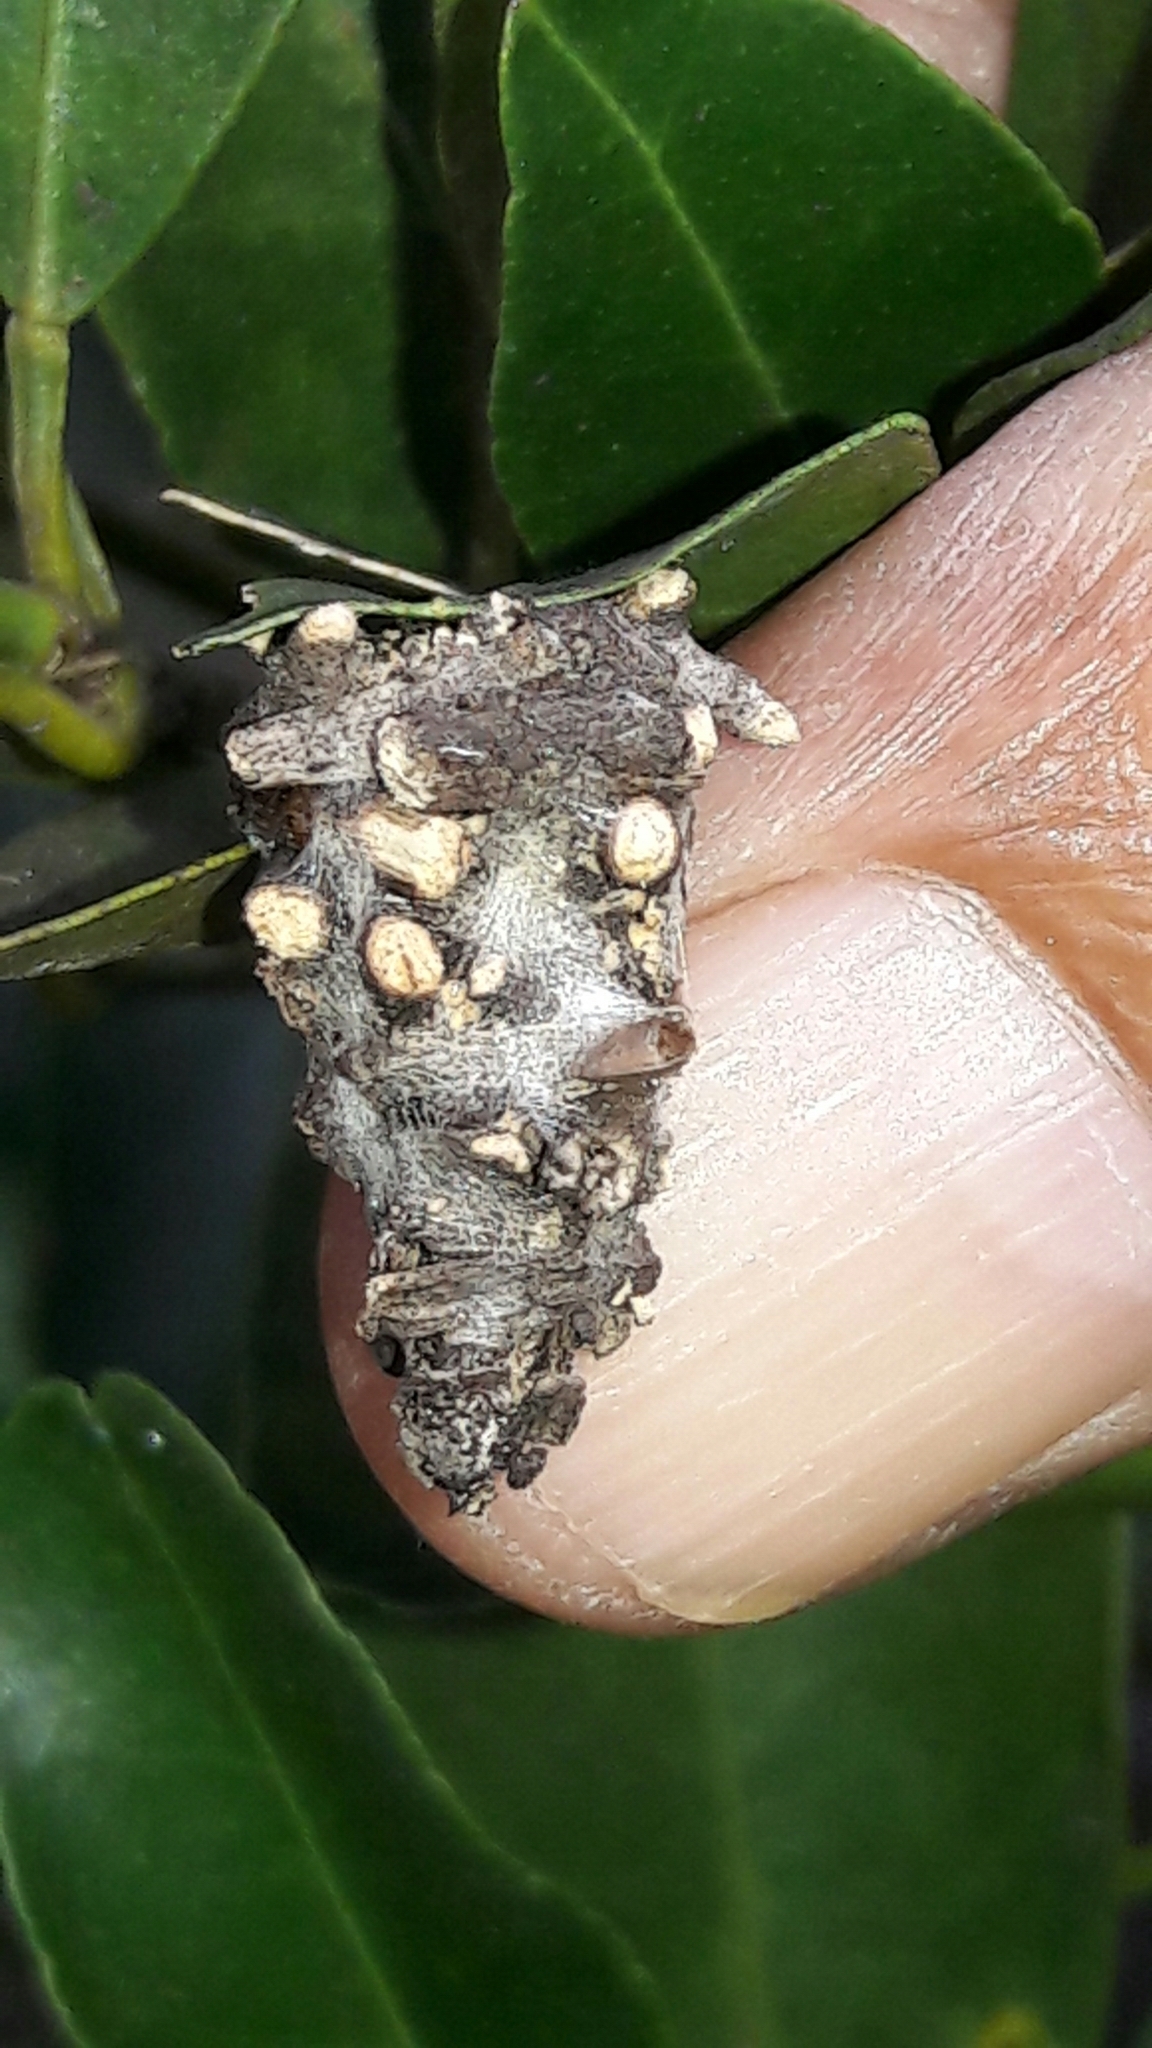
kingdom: Animalia
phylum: Arthropoda
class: Insecta
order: Lepidoptera
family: Psychidae
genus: Oiketicus
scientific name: Oiketicus kirbyi
